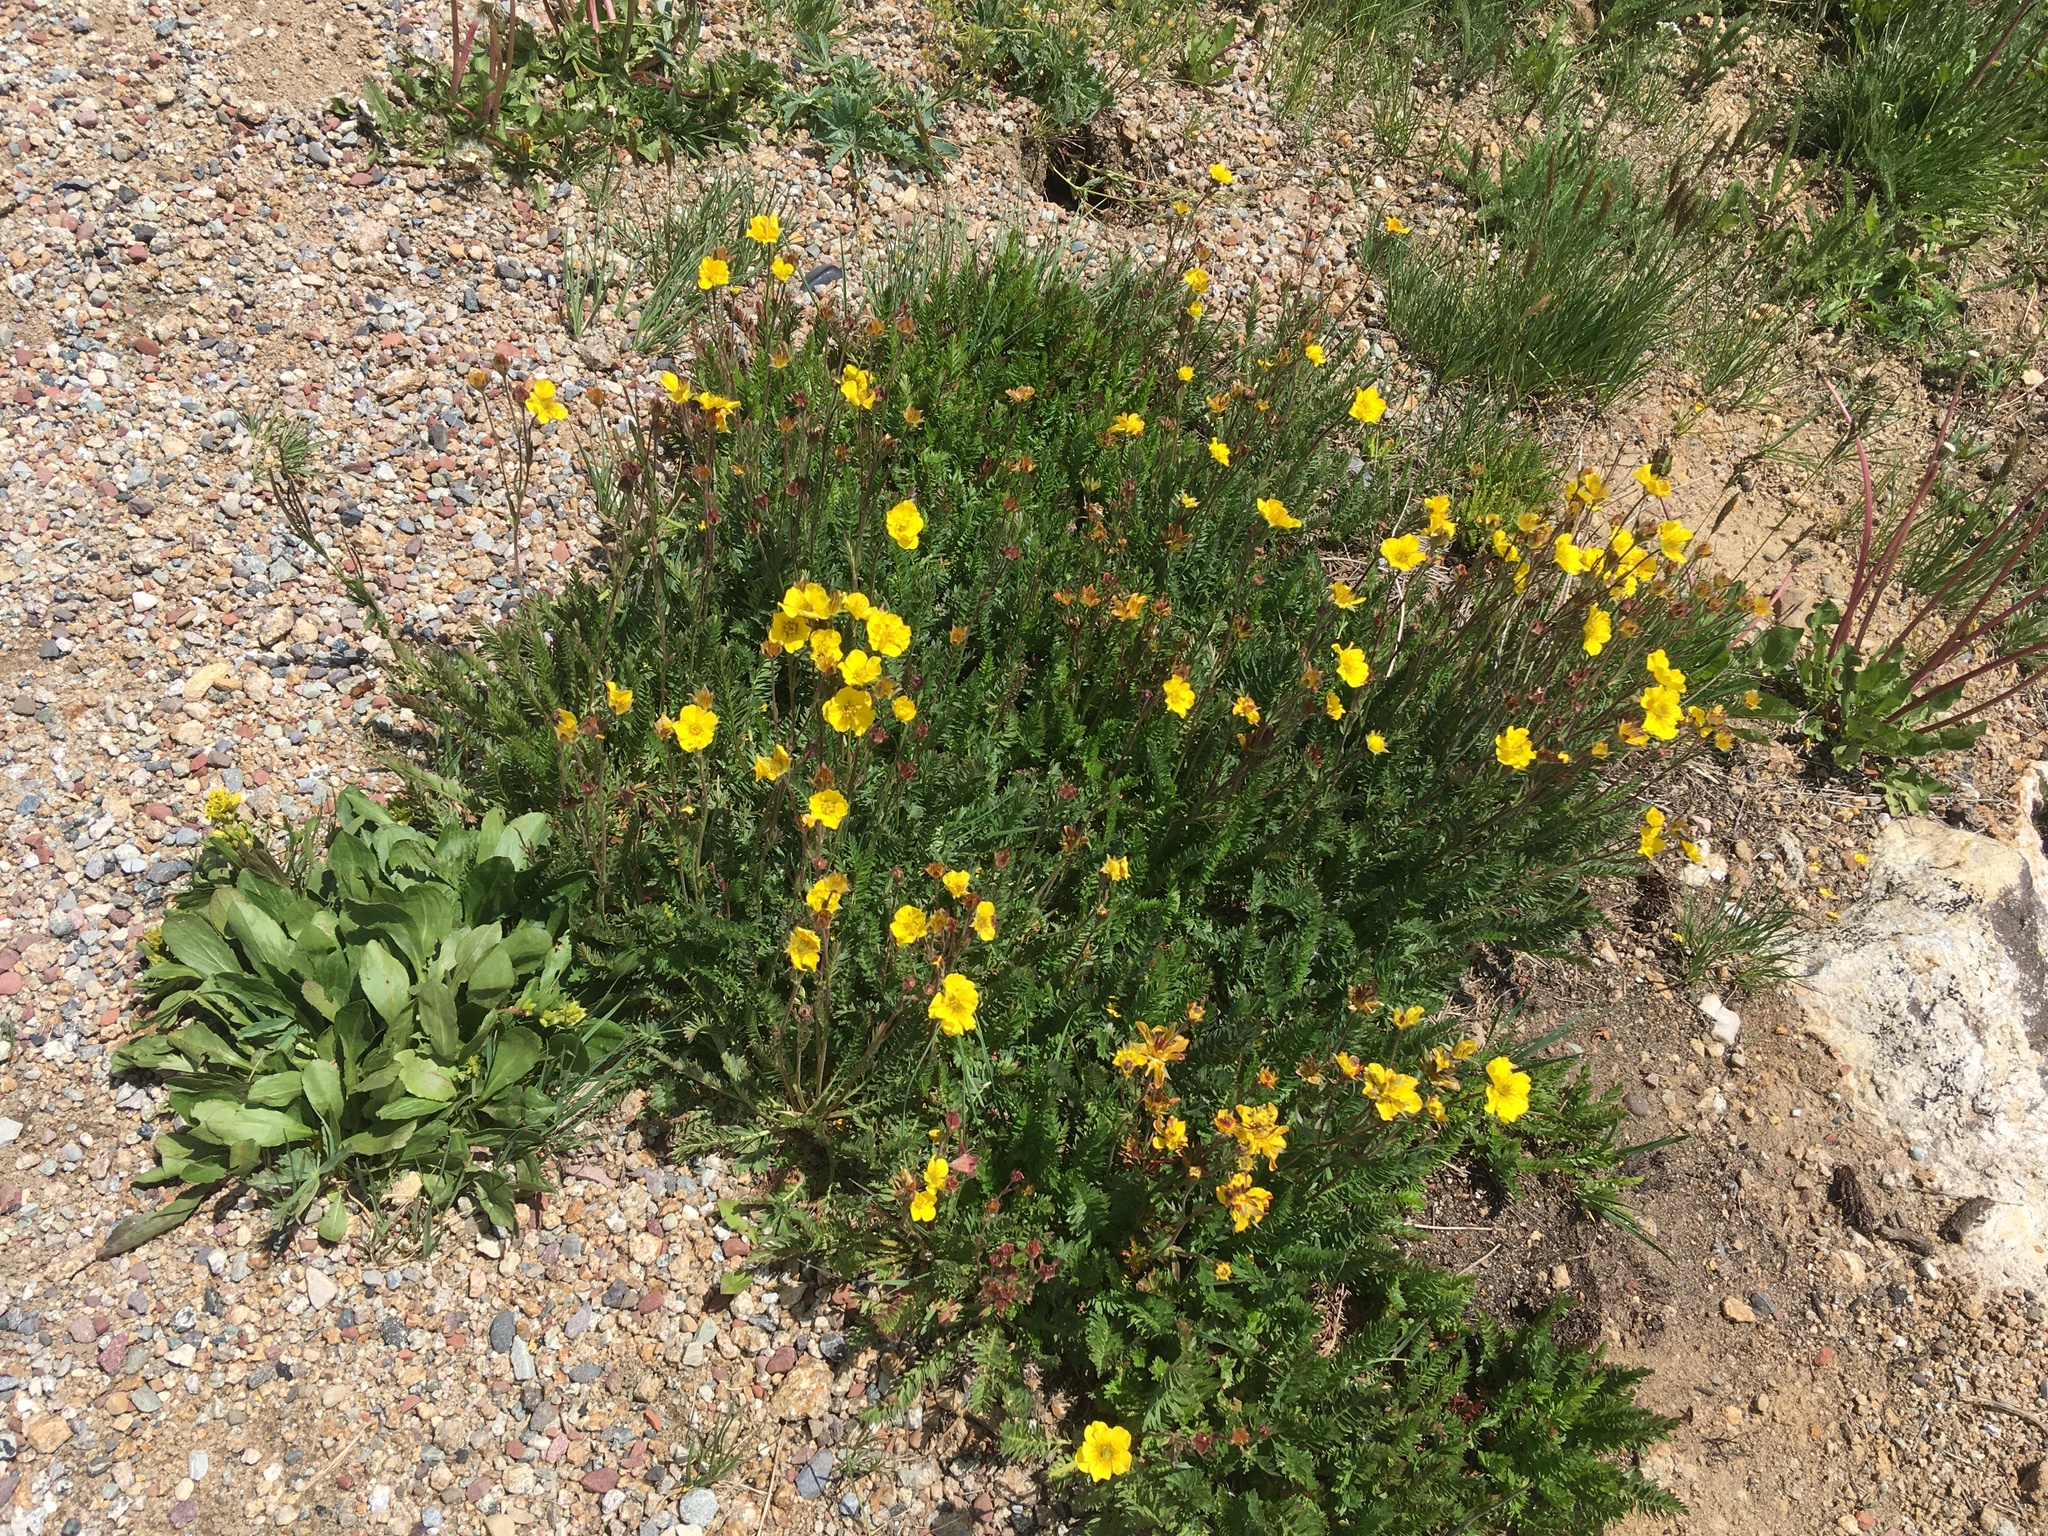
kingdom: Plantae
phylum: Tracheophyta
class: Magnoliopsida
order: Rosales
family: Rosaceae
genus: Geum
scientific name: Geum rossii
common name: Alpine avens
